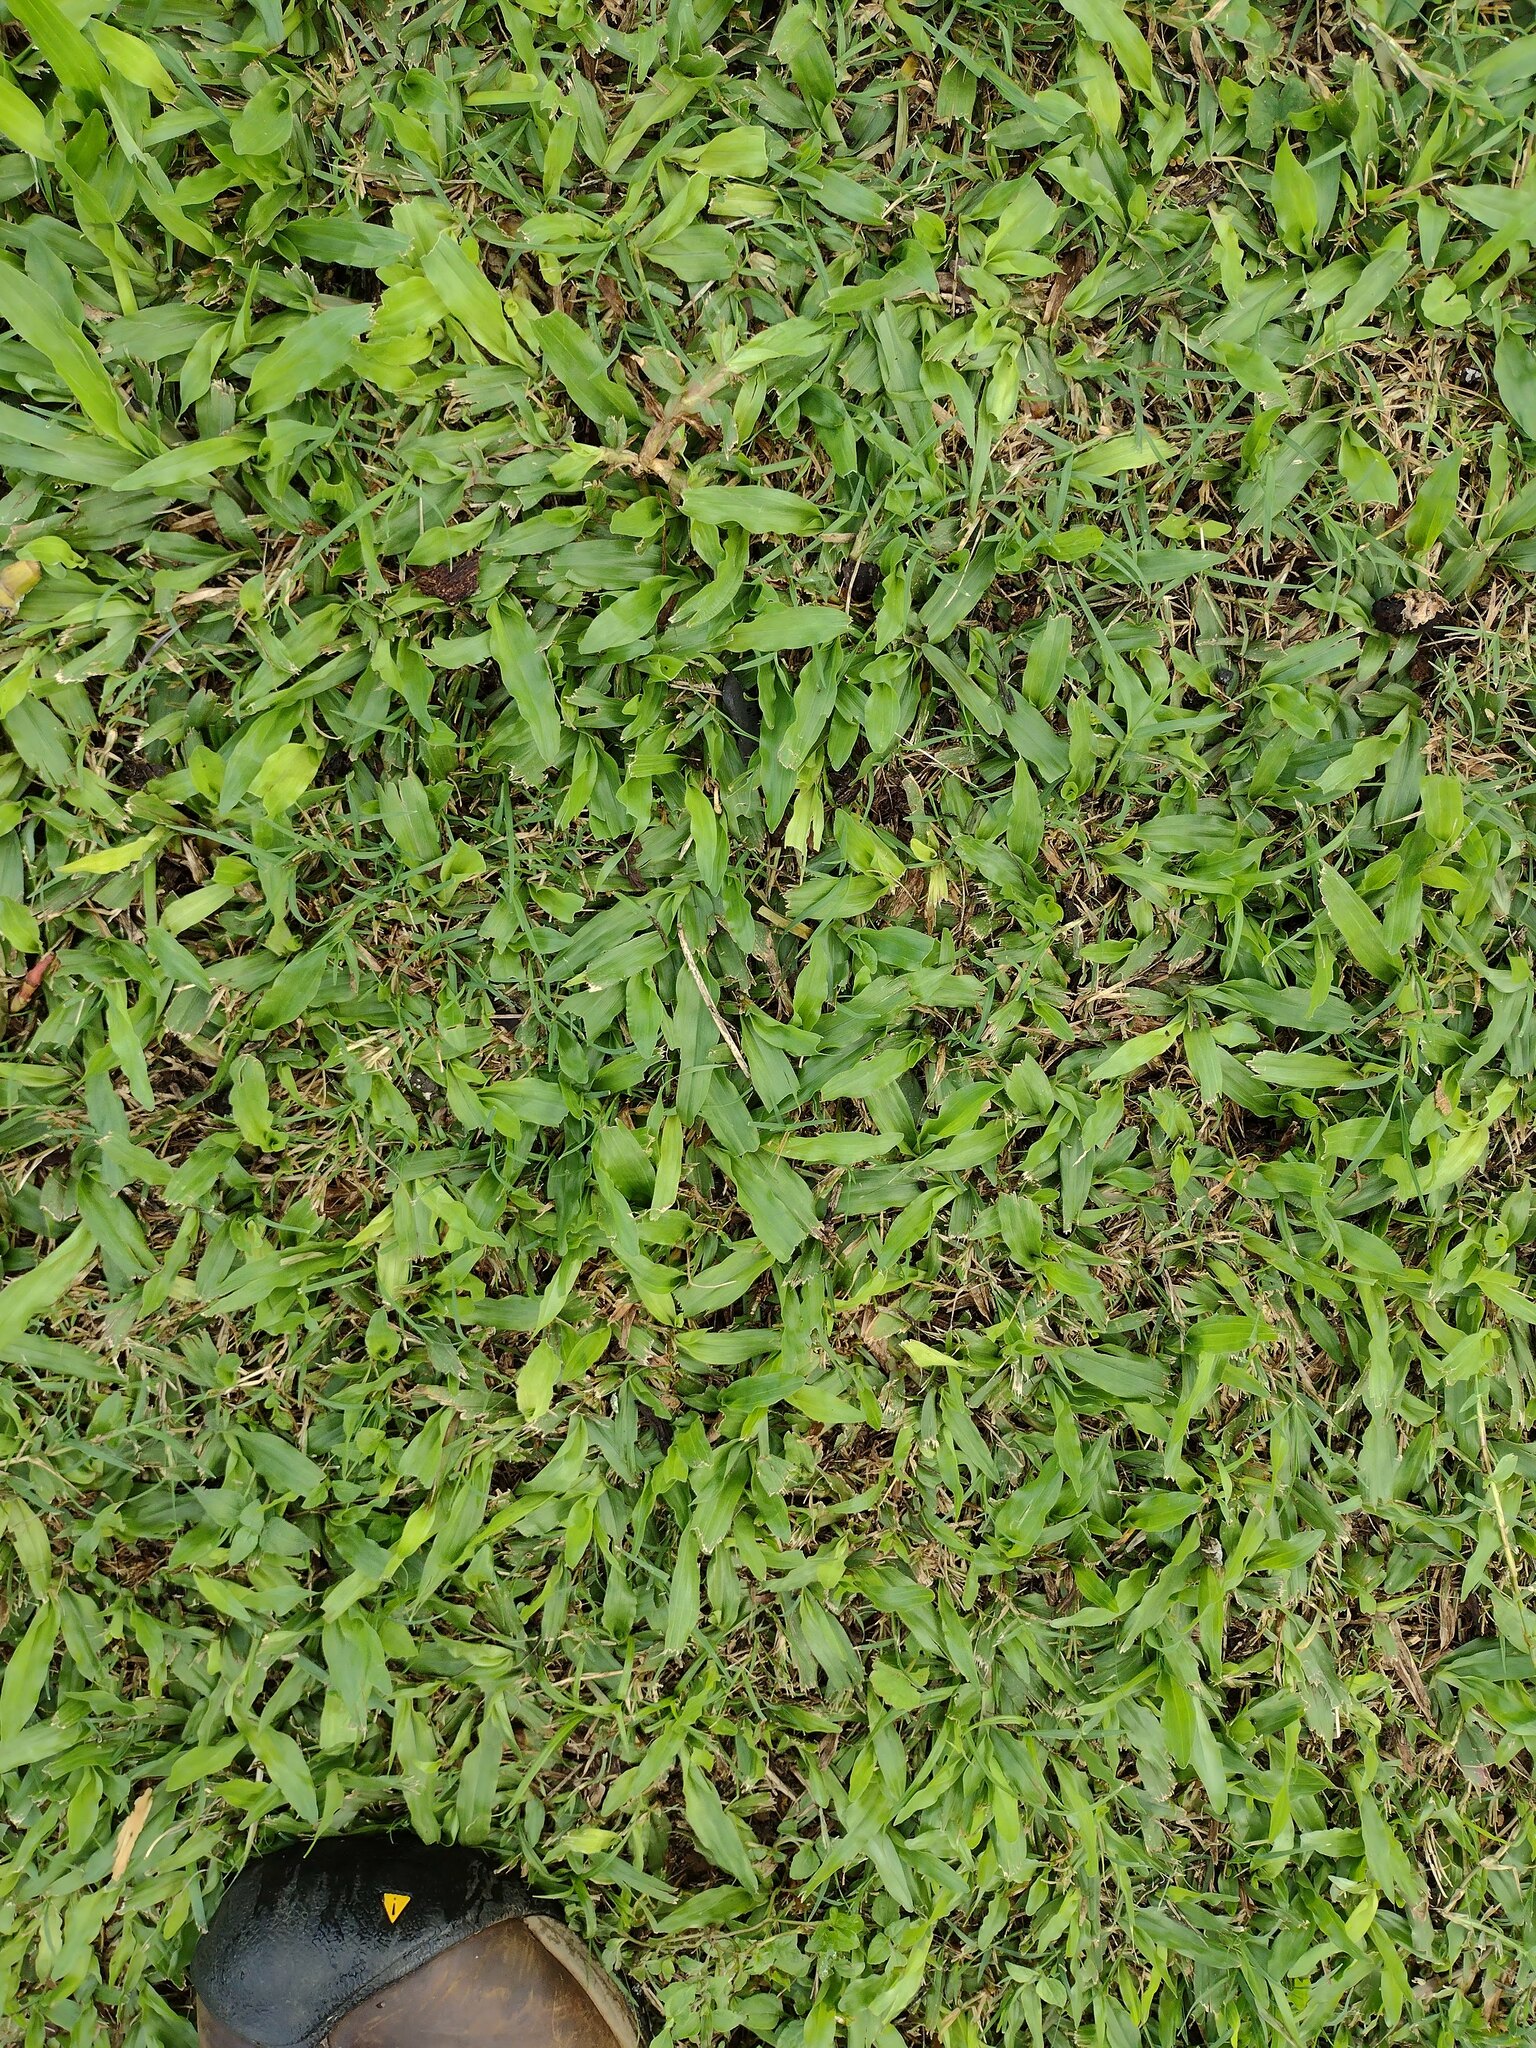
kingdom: Plantae
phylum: Tracheophyta
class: Liliopsida
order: Poales
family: Poaceae
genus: Axonopus
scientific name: Axonopus compressus
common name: American carpet grass
